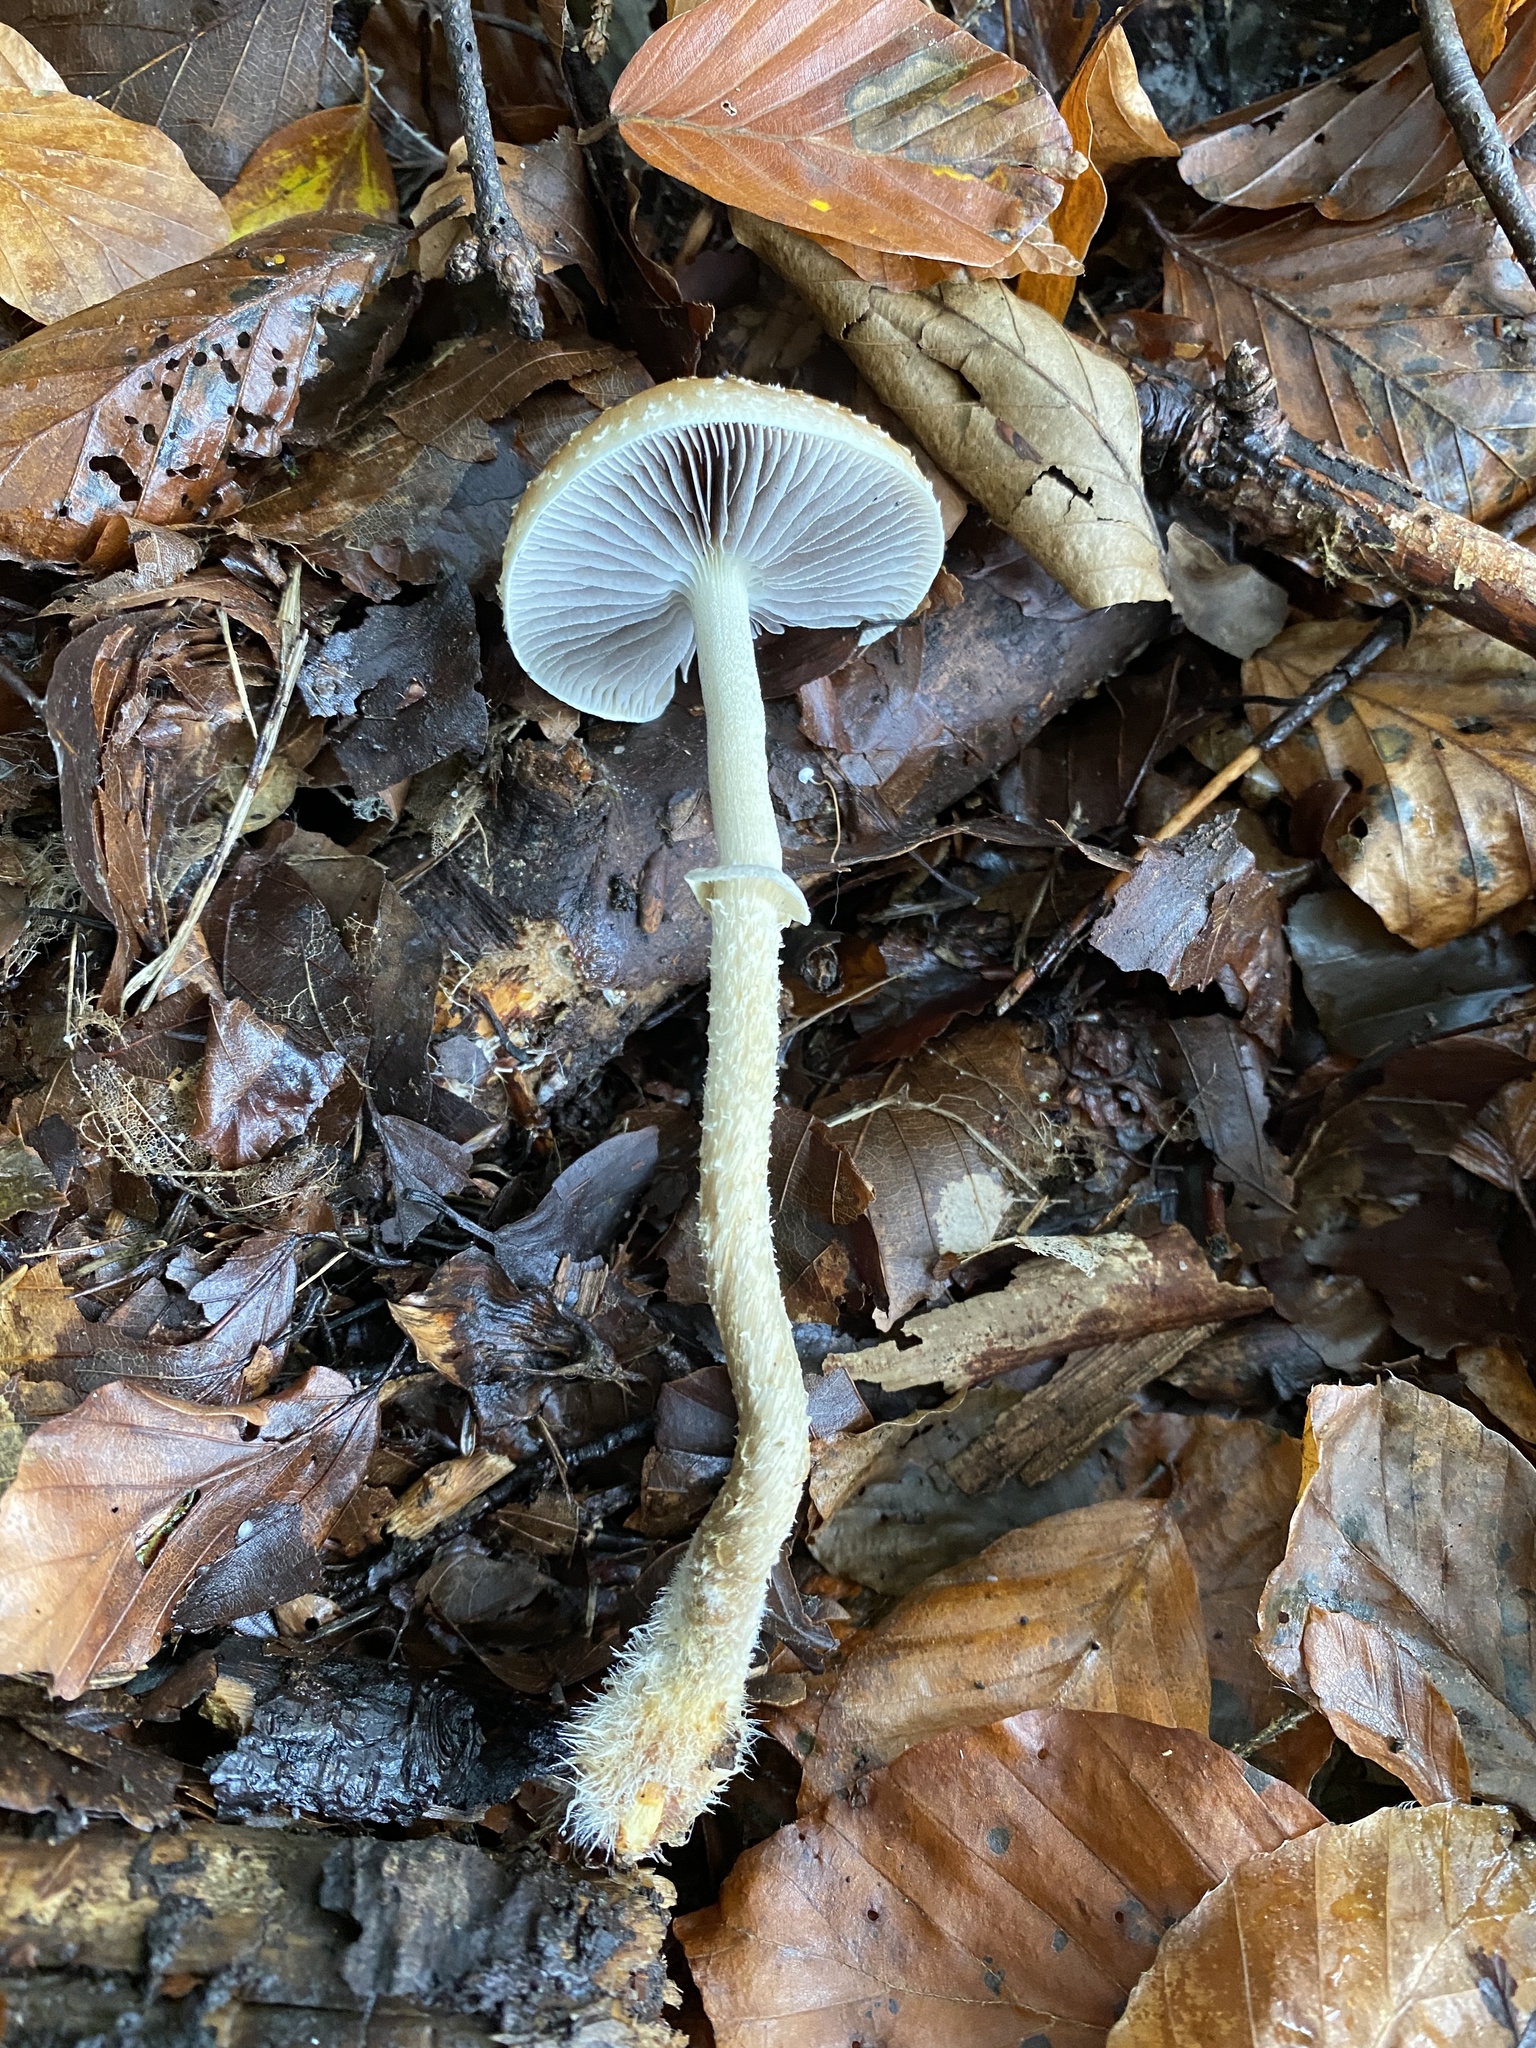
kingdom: Fungi
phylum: Basidiomycota
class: Agaricomycetes
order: Agaricales
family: Strophariaceae
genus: Leratiomyces
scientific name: Leratiomyces squamosus
